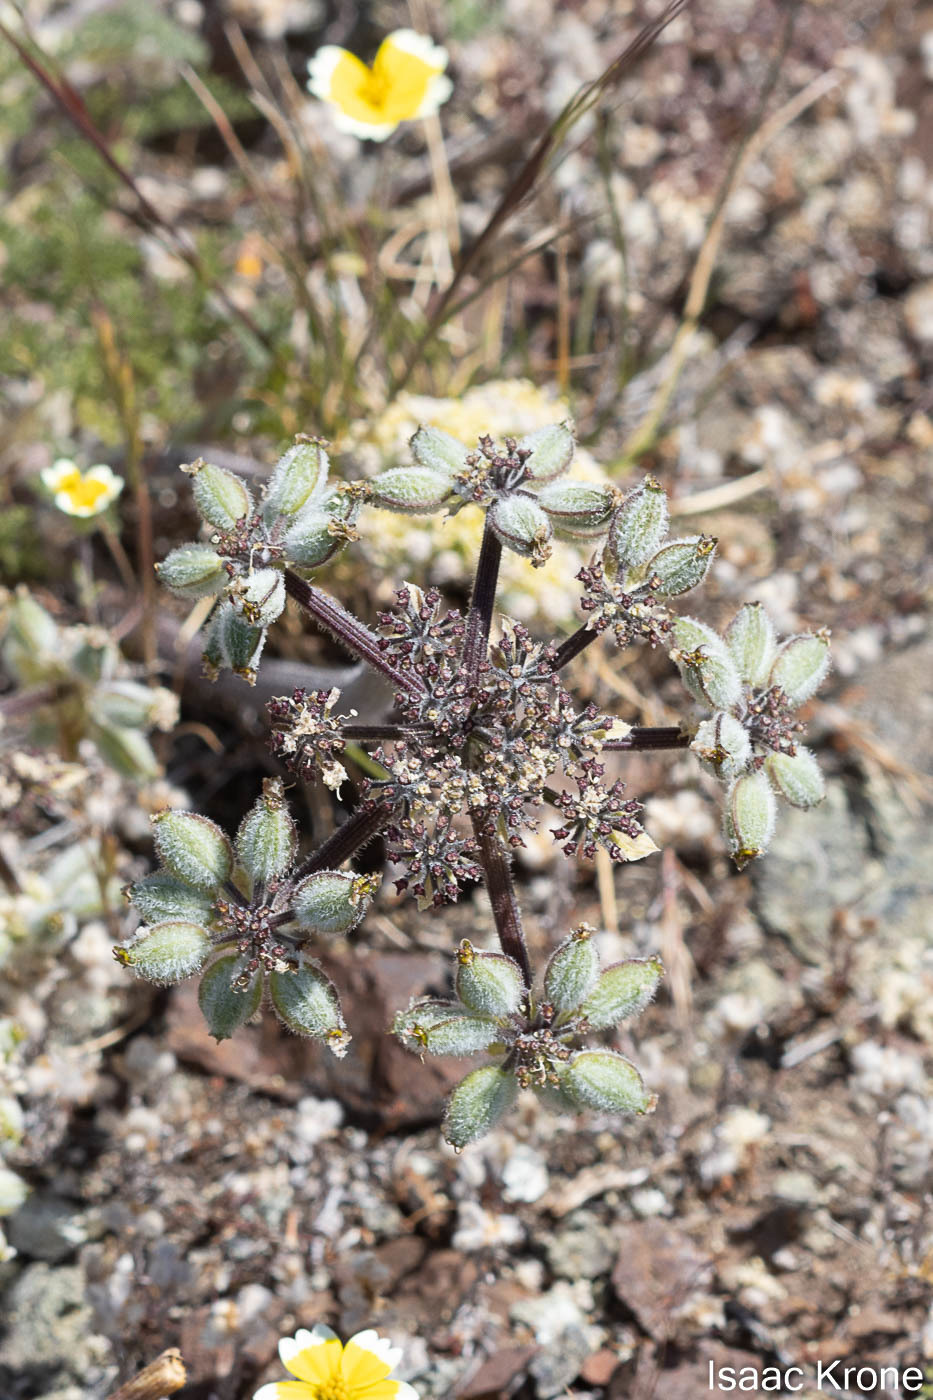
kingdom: Plantae
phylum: Tracheophyta
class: Magnoliopsida
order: Apiales
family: Apiaceae
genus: Lomatium
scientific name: Lomatium dasycarpum
